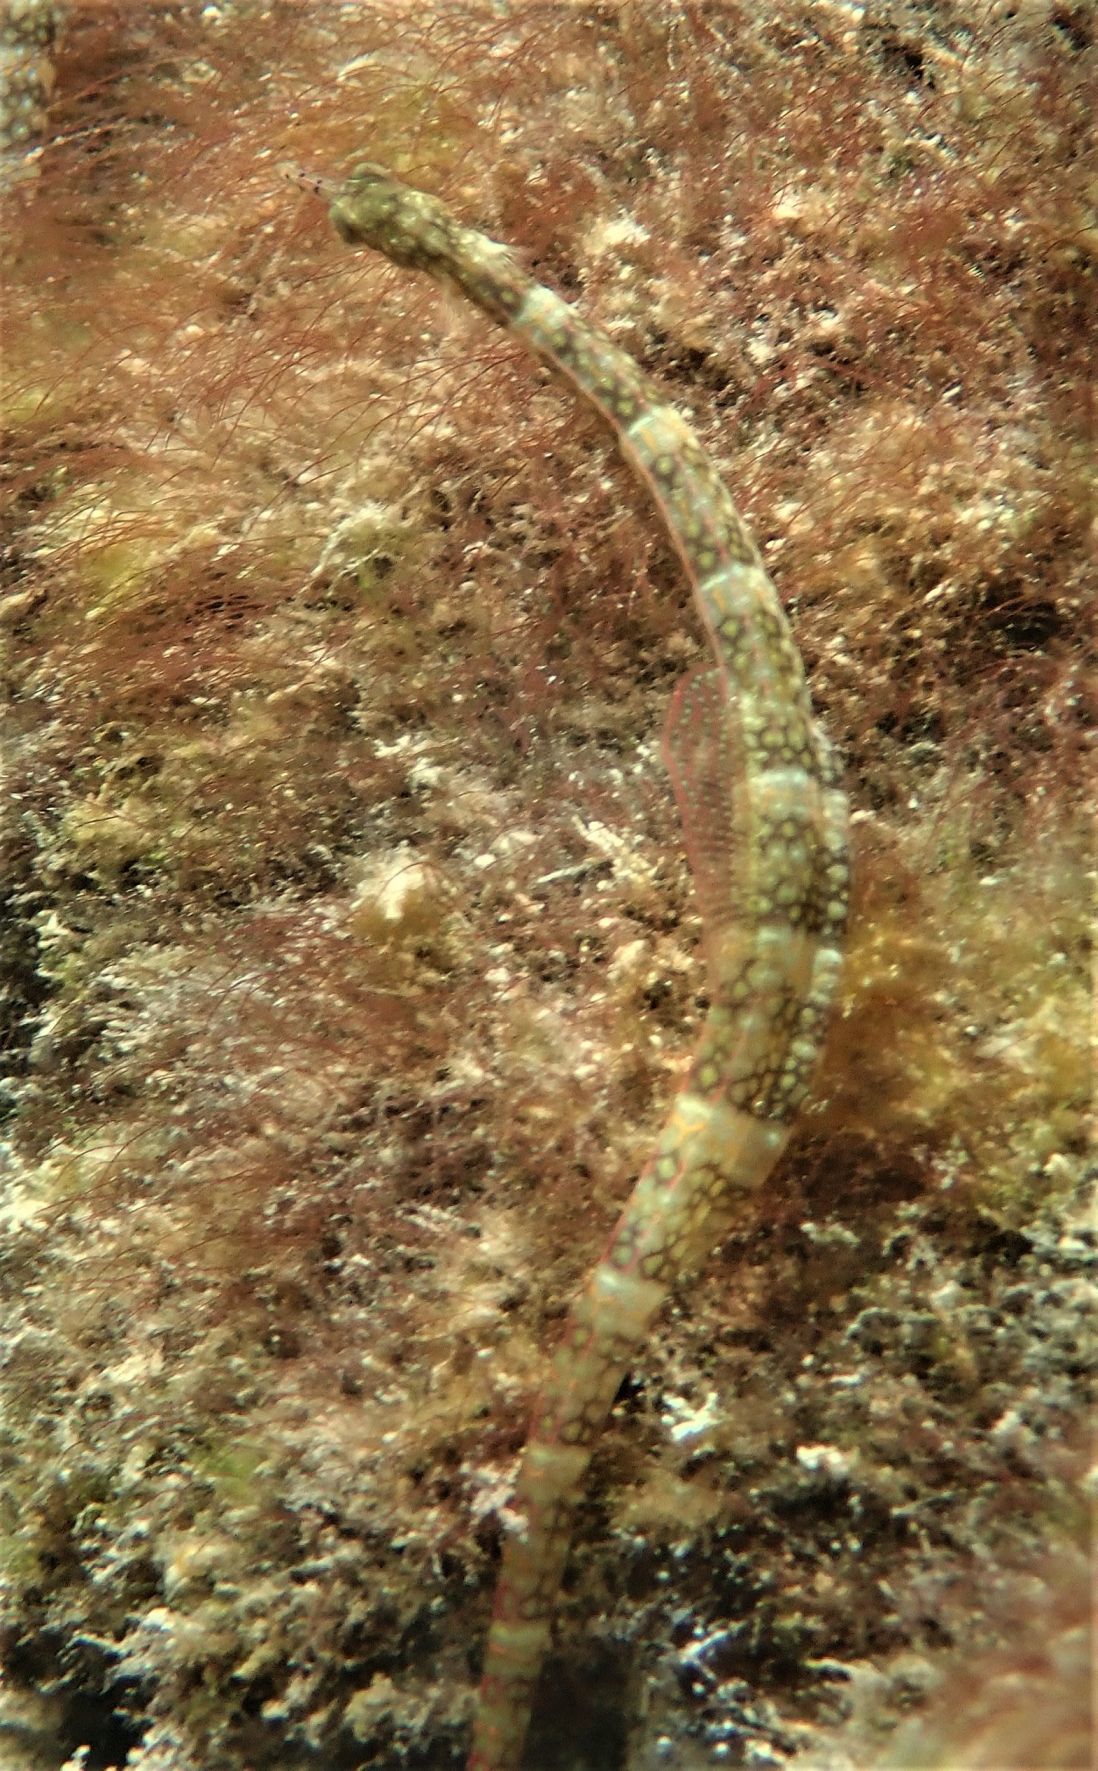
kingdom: Animalia
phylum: Chordata
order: Syngnathiformes
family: Syngnathidae
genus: Corythoichthys
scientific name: Corythoichthys flavofasciatus
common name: Banded pipefish
